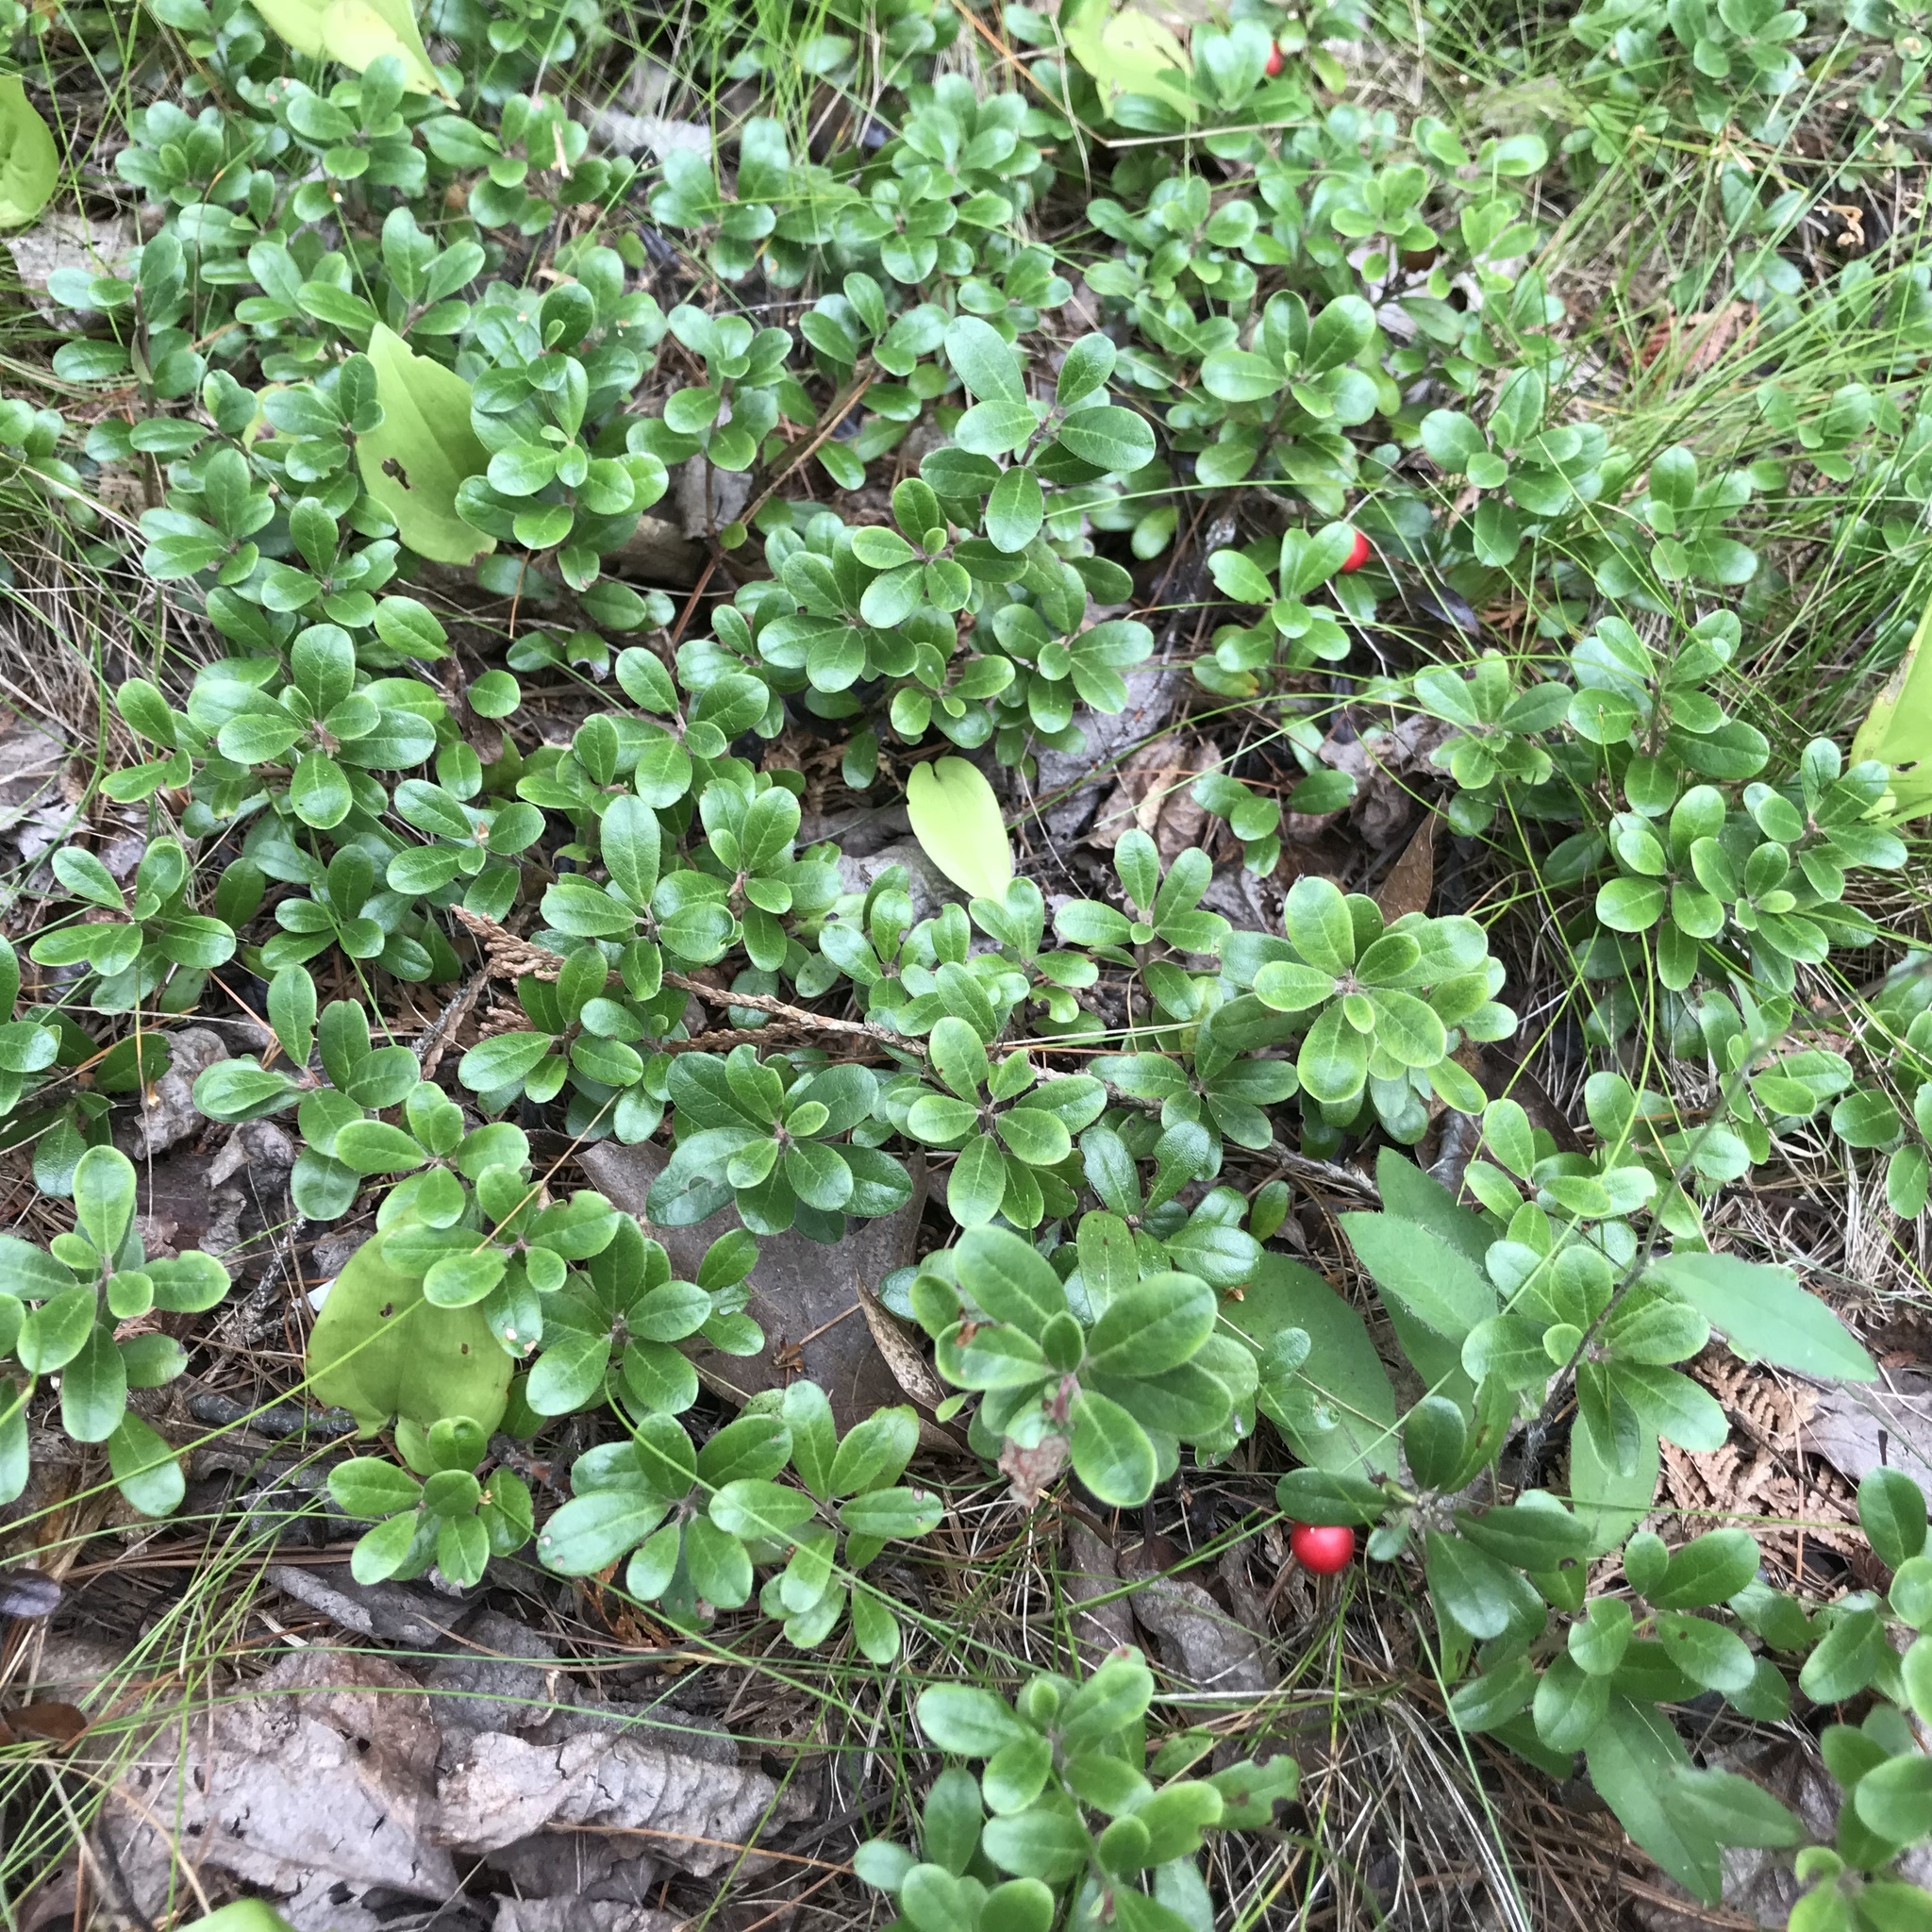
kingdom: Plantae
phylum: Tracheophyta
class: Magnoliopsida
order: Ericales
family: Ericaceae
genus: Arctostaphylos
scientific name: Arctostaphylos uva-ursi
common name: Bearberry
